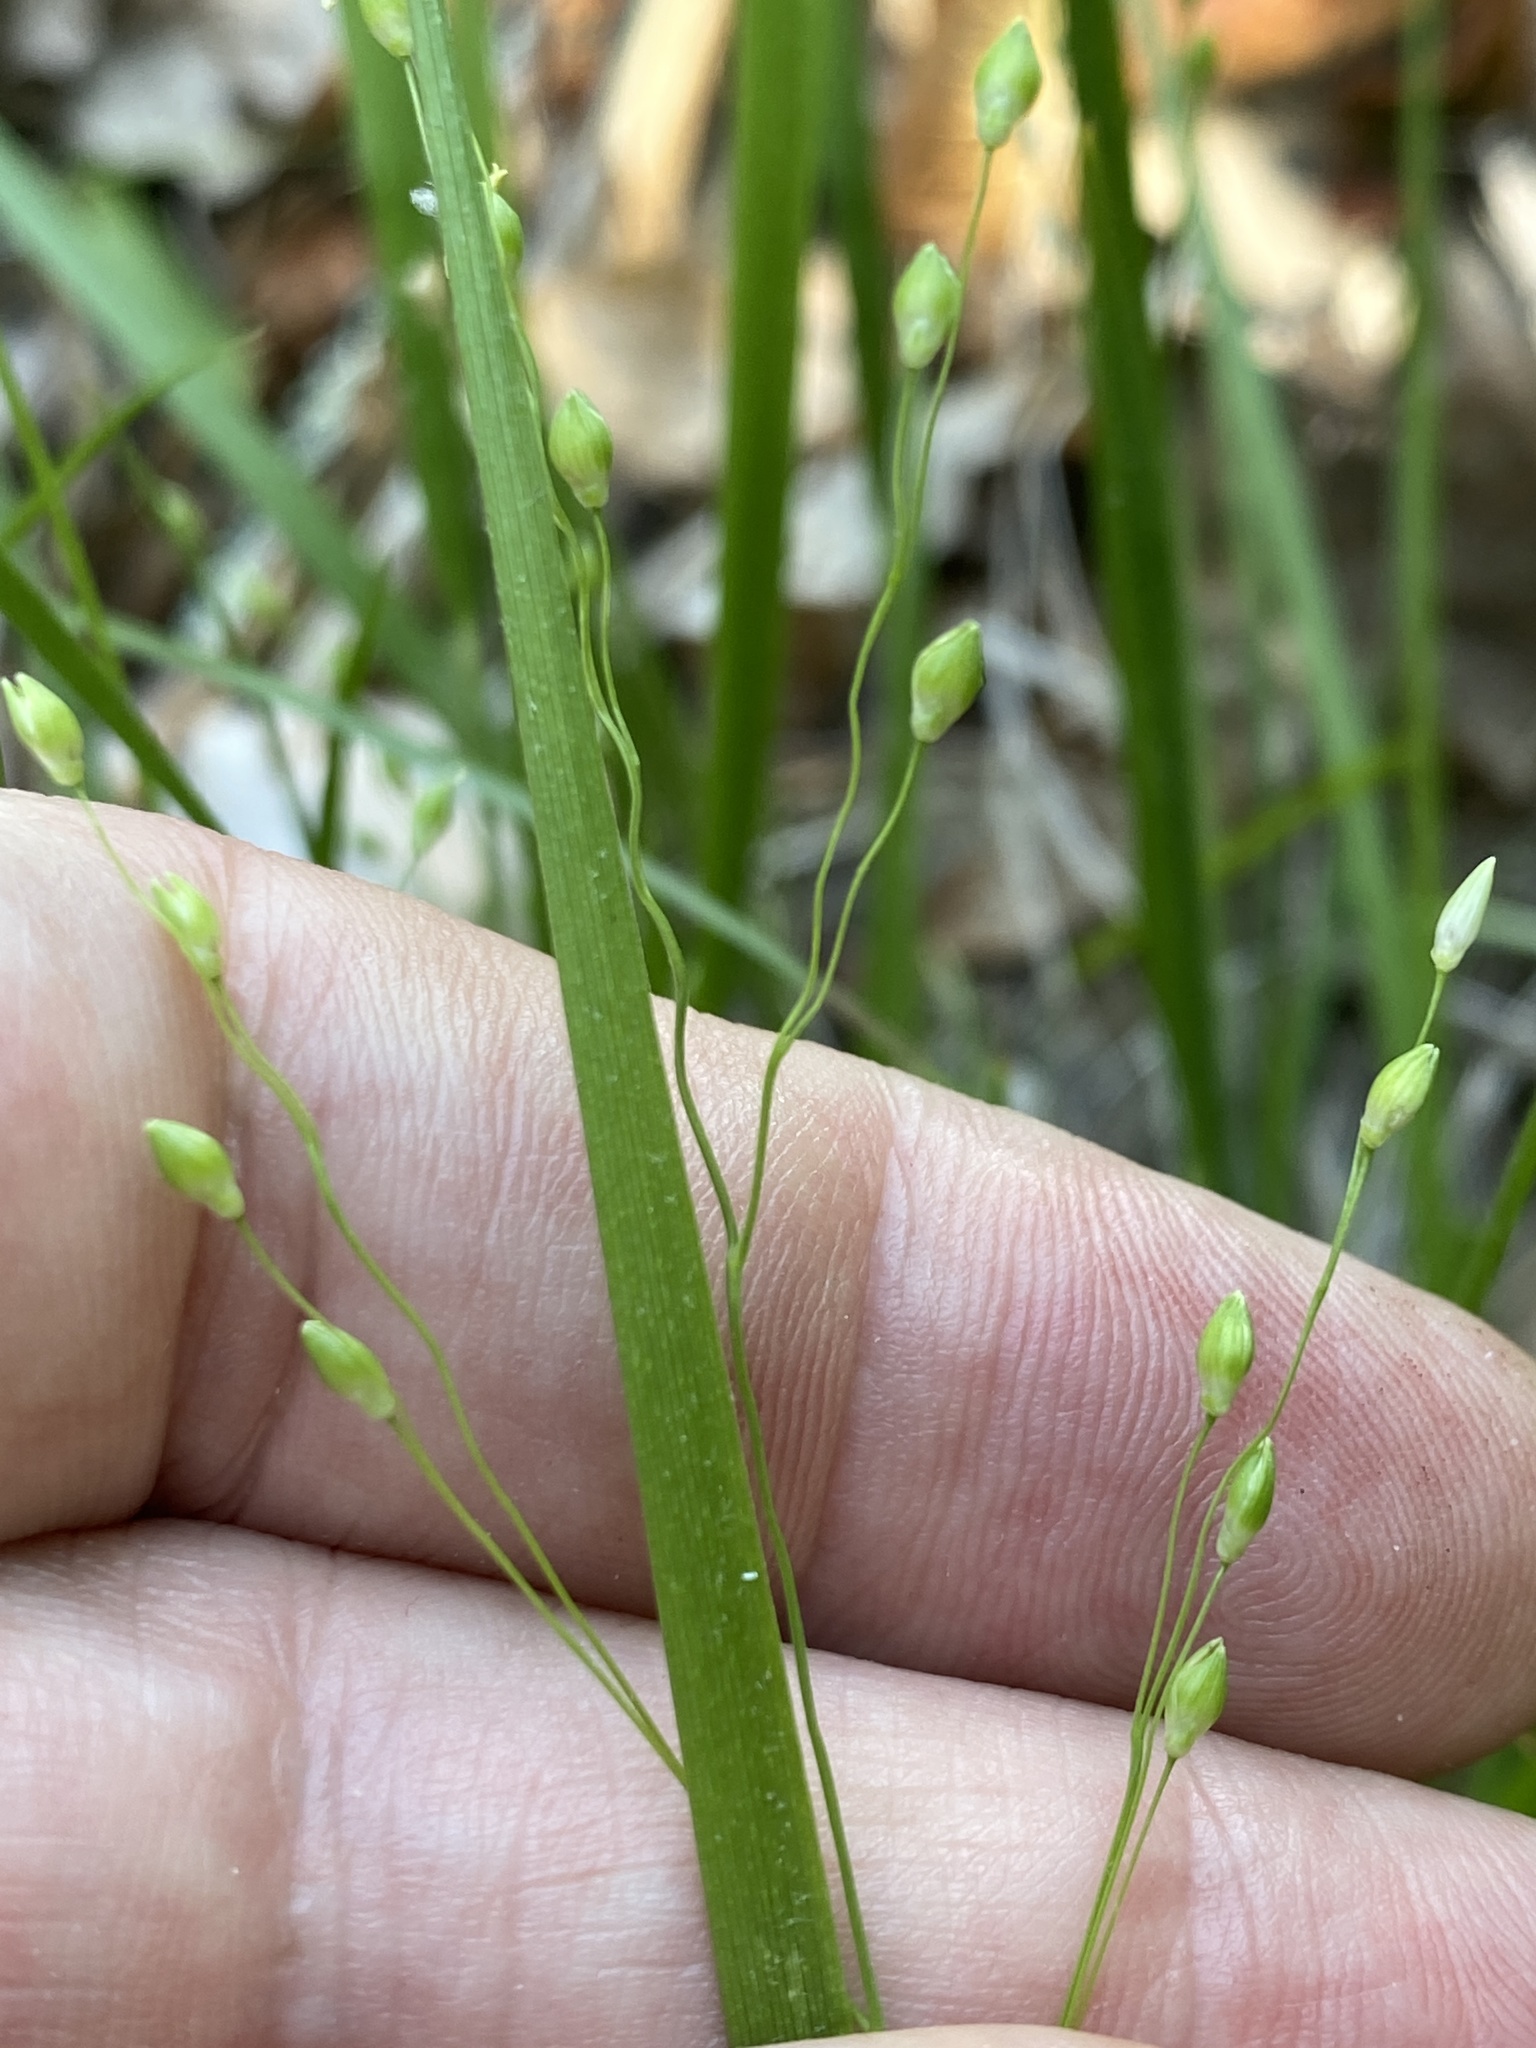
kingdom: Plantae
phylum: Tracheophyta
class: Liliopsida
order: Poales
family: Poaceae
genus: Dichanthelium
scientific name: Dichanthelium depauperatum
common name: Depauperate panicgrass
